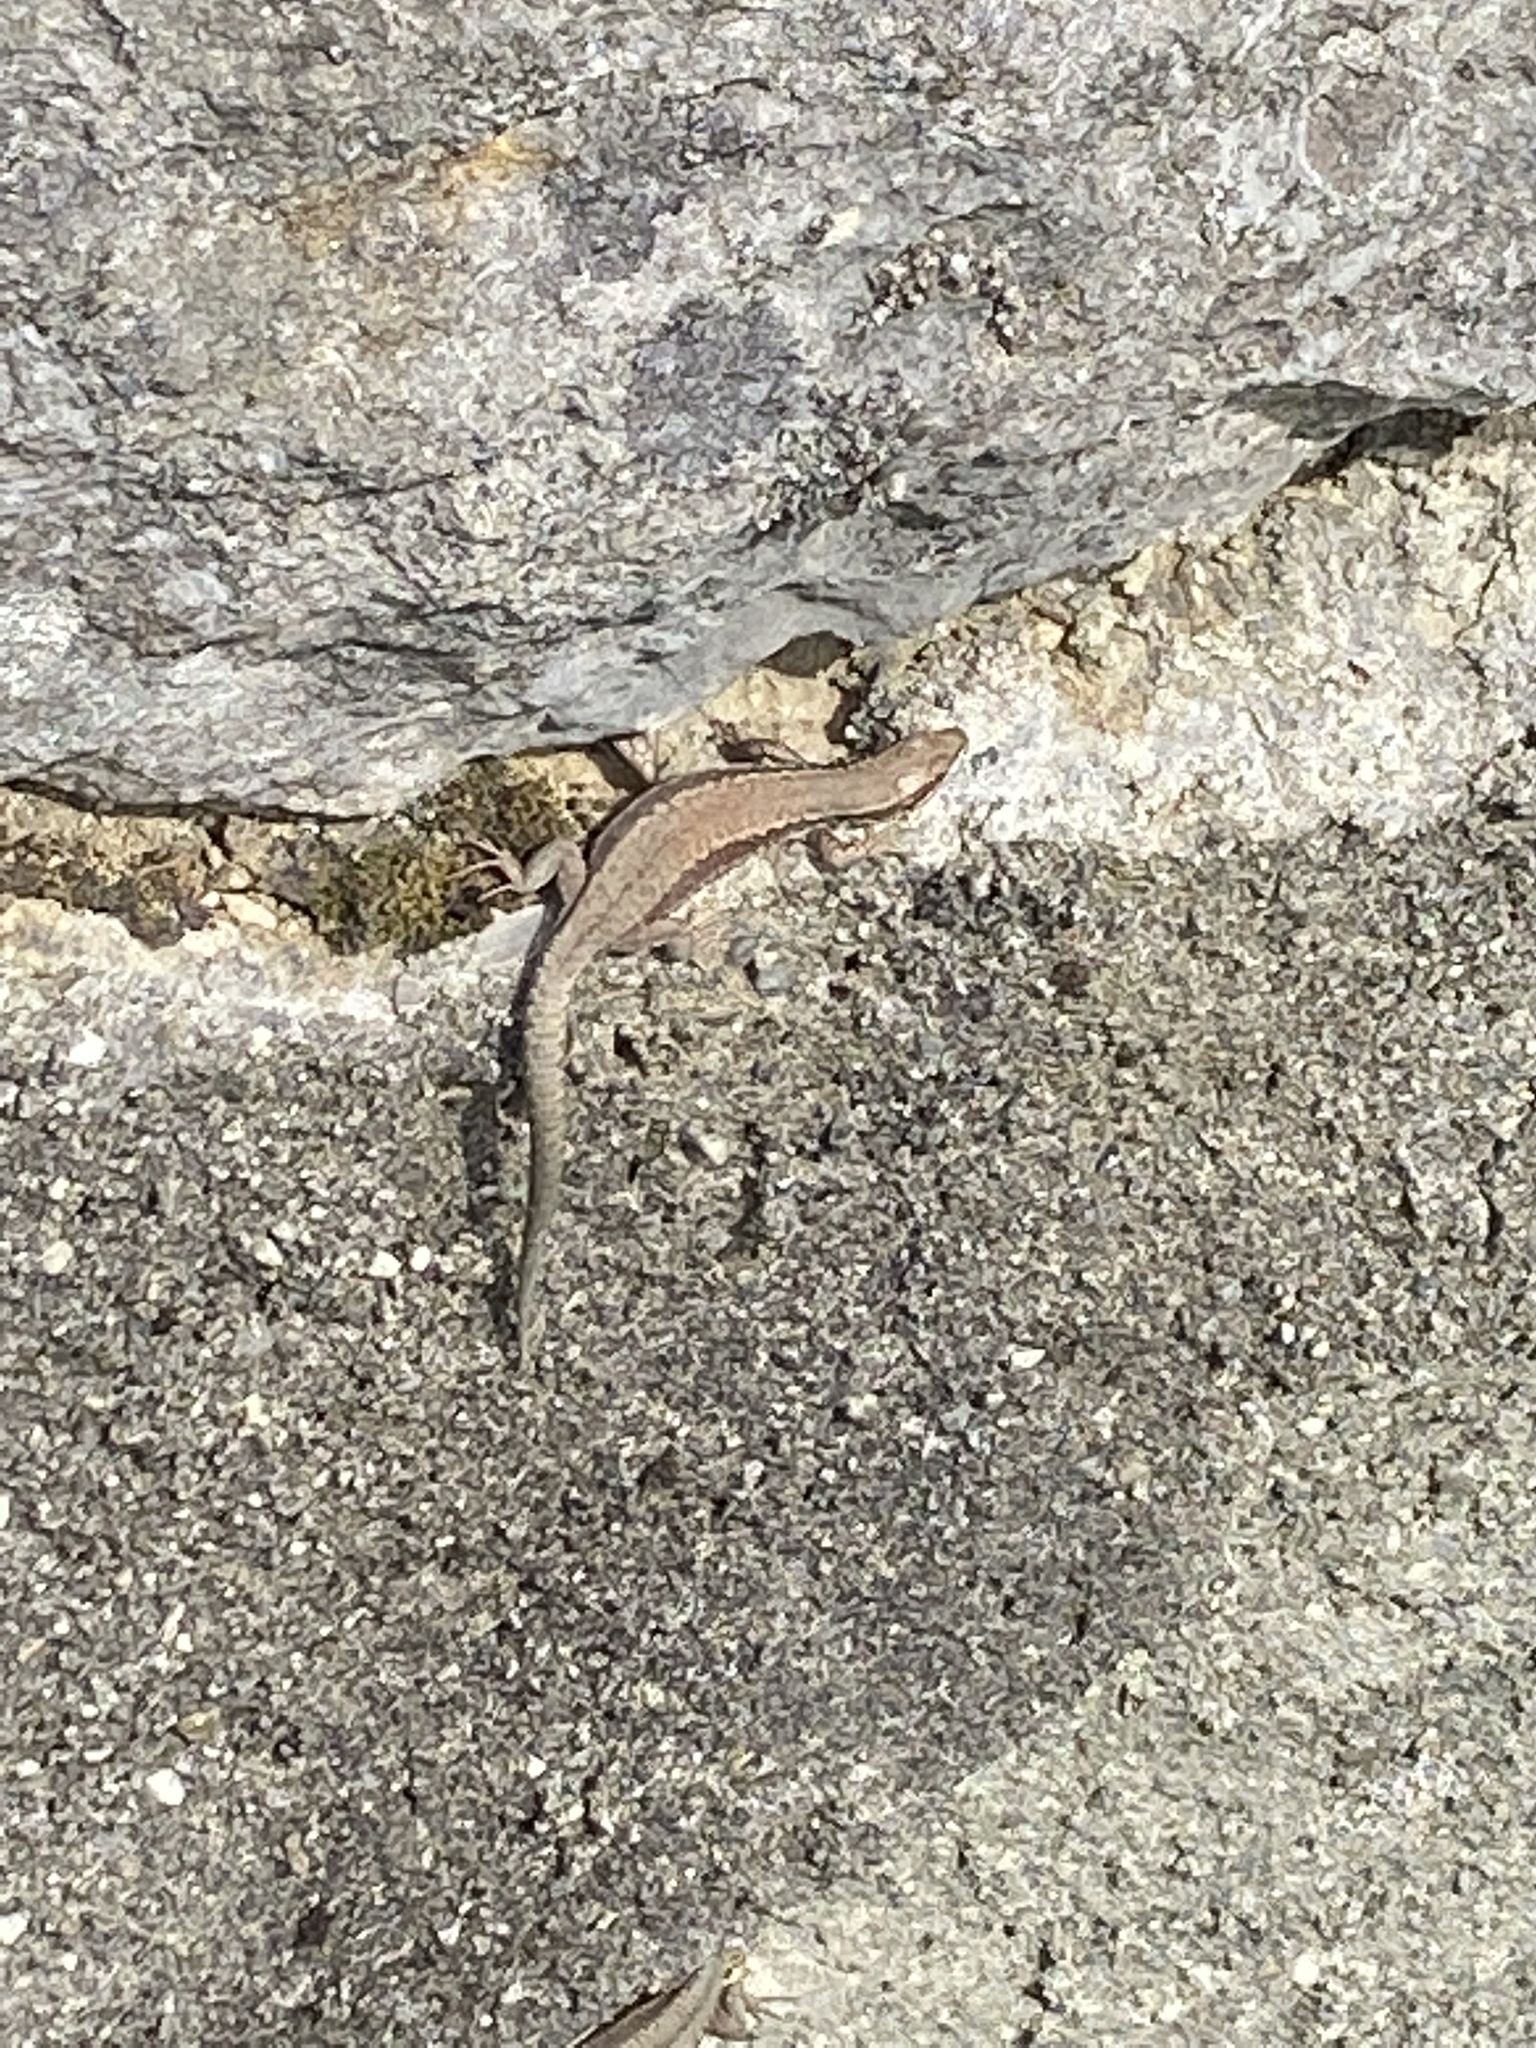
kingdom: Animalia
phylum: Chordata
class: Squamata
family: Lacertidae
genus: Podarcis
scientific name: Podarcis muralis
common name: Common wall lizard
